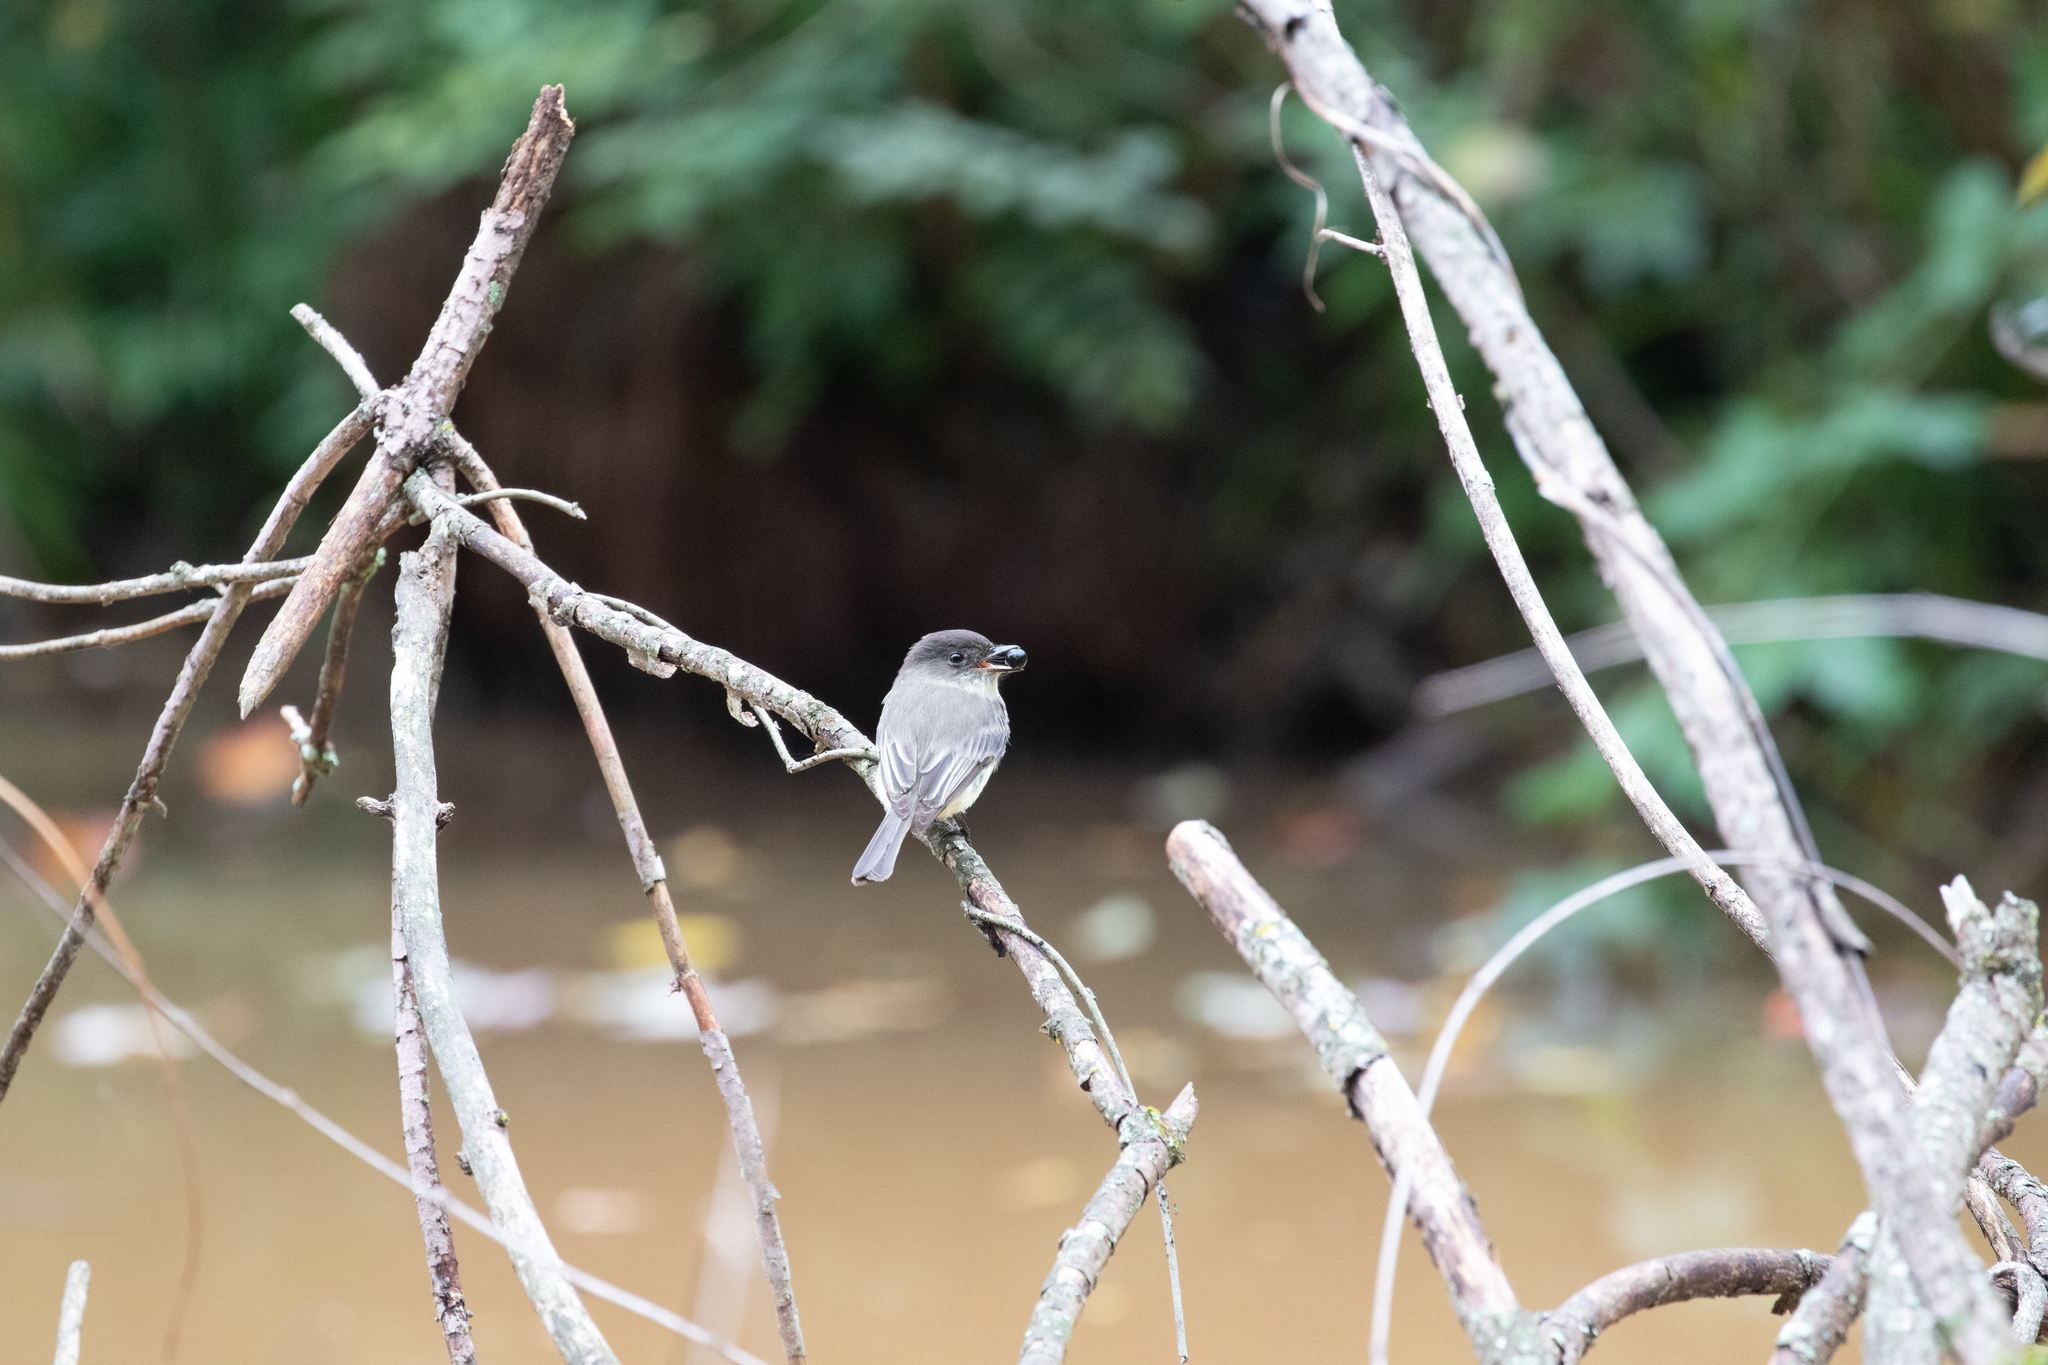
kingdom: Animalia
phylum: Chordata
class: Aves
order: Passeriformes
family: Tyrannidae
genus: Sayornis
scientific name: Sayornis phoebe
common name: Eastern phoebe
